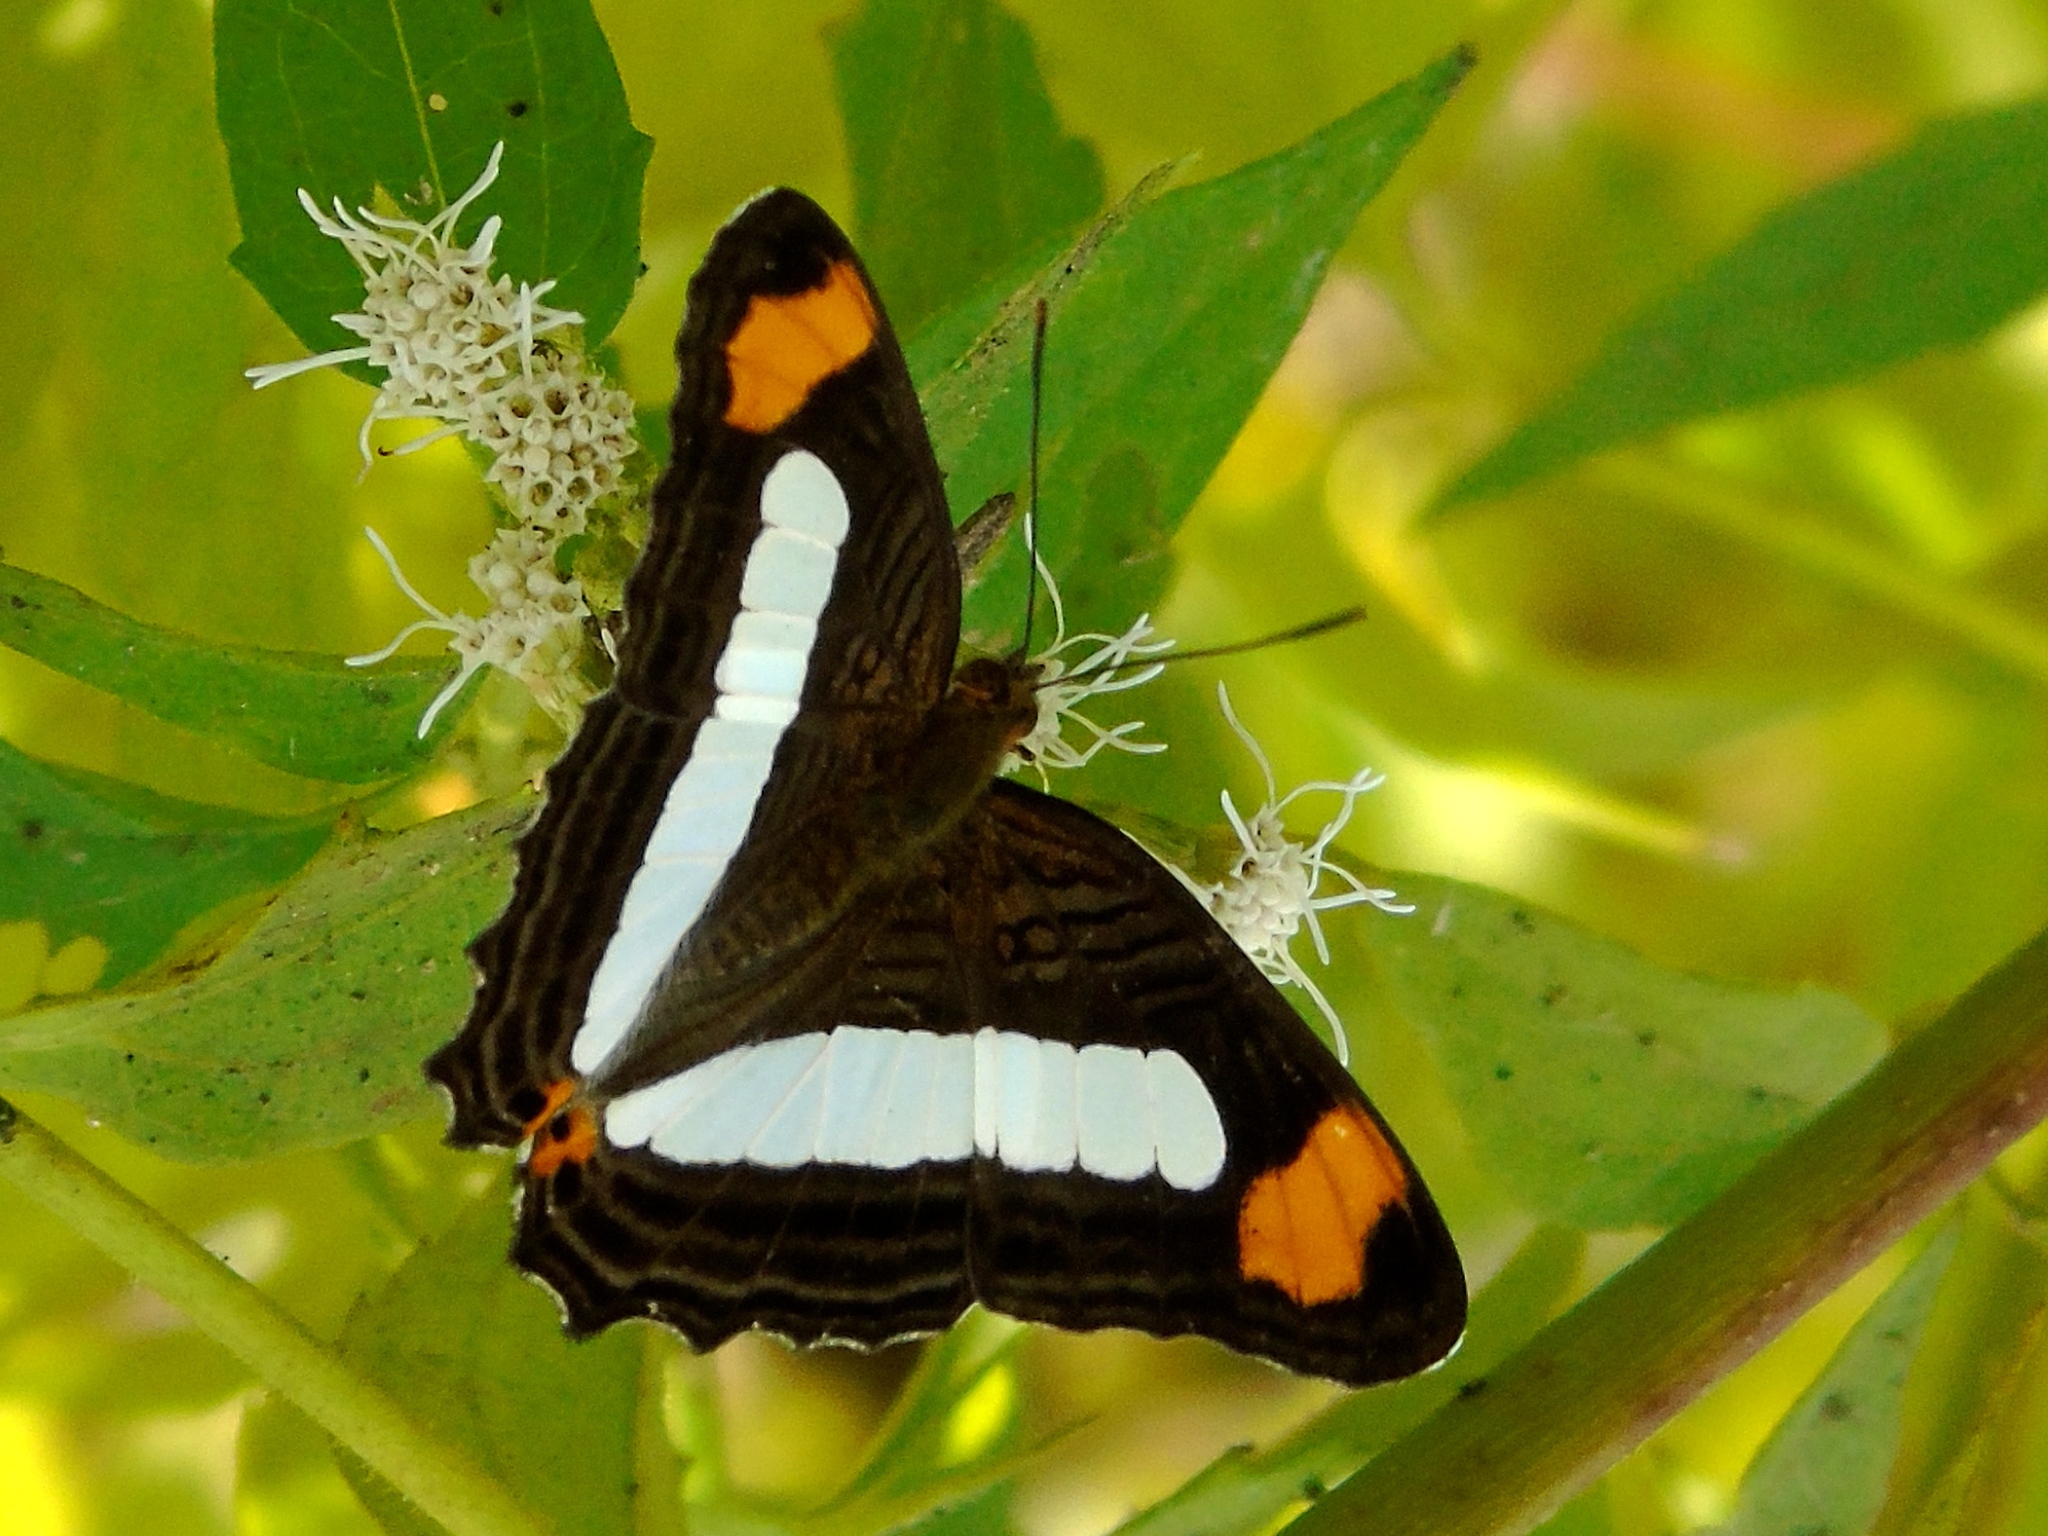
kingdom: Animalia
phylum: Arthropoda
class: Insecta
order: Lepidoptera
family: Nymphalidae
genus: Limenitis
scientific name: Limenitis iphiclus
